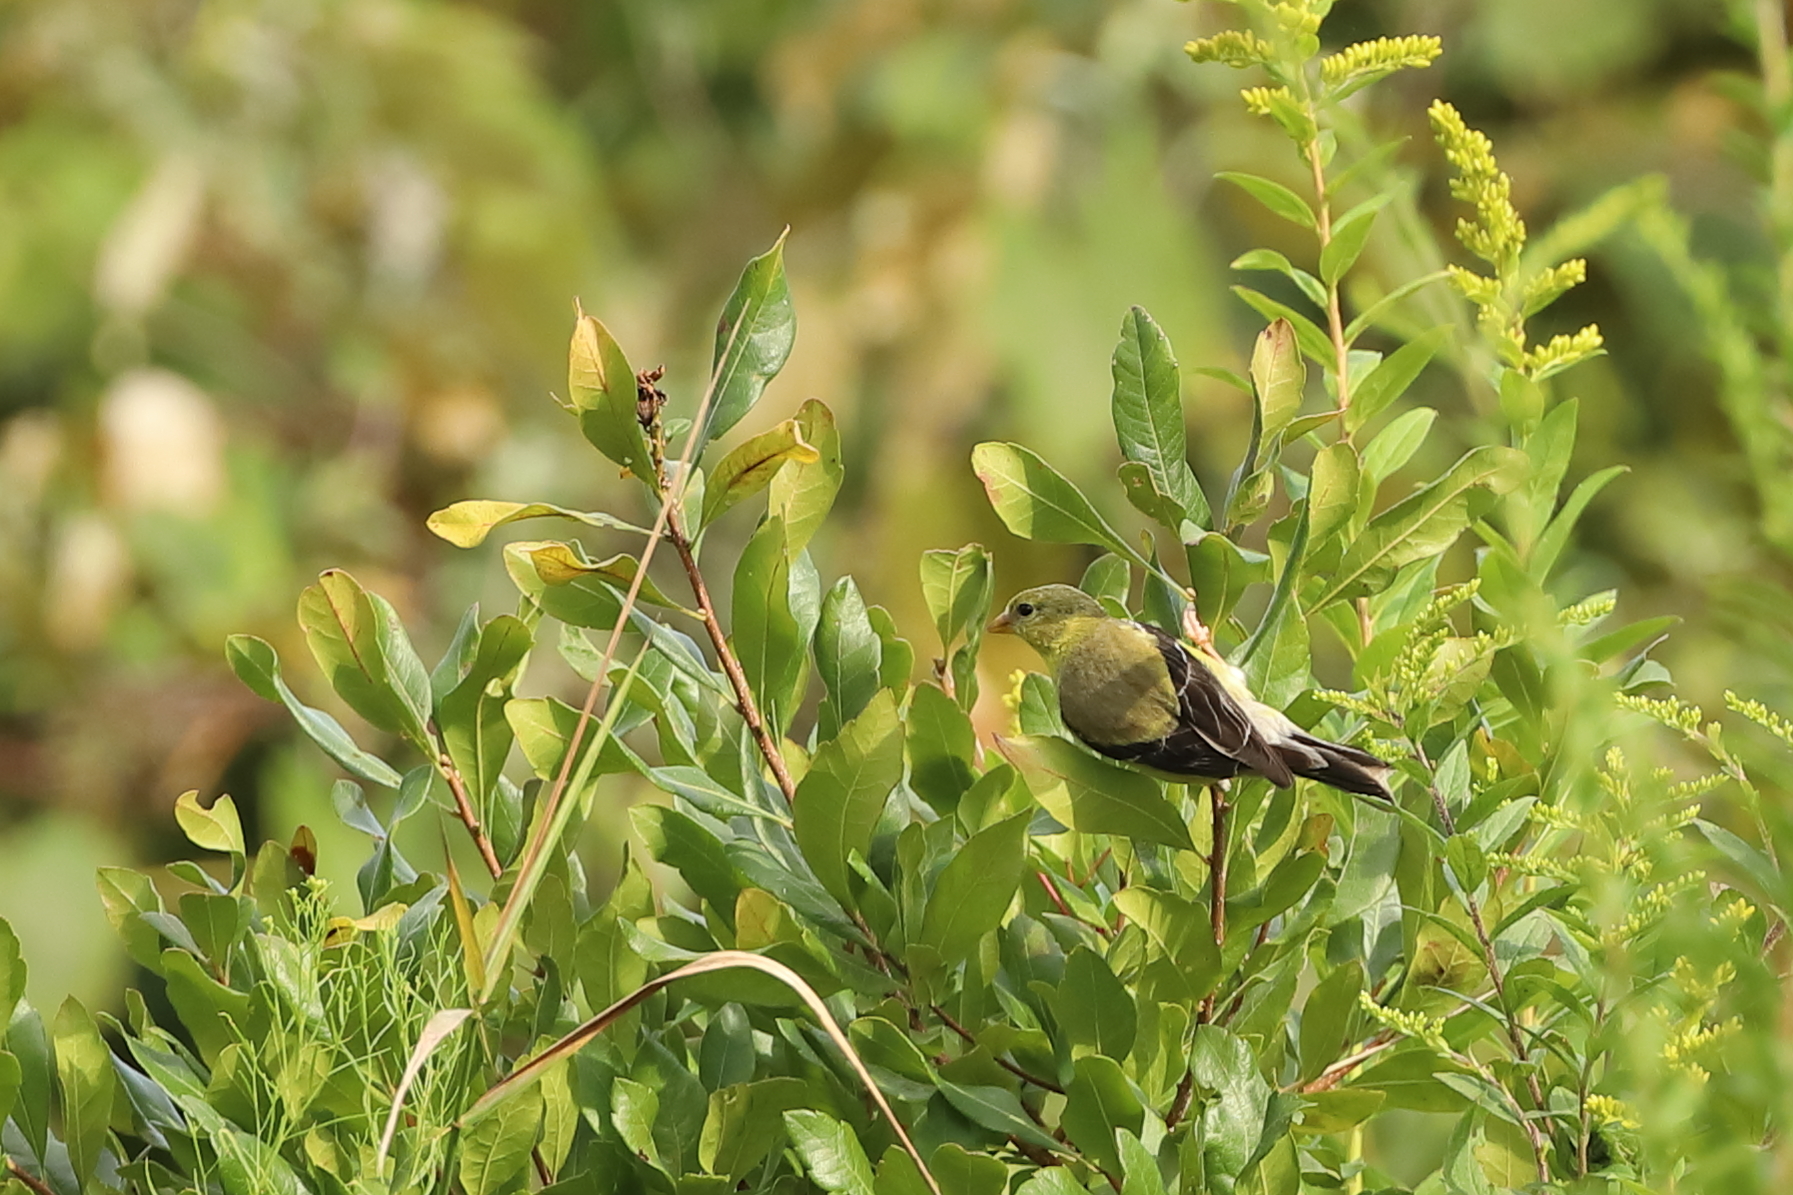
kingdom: Animalia
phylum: Chordata
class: Aves
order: Passeriformes
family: Fringillidae
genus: Spinus
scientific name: Spinus tristis
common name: American goldfinch
